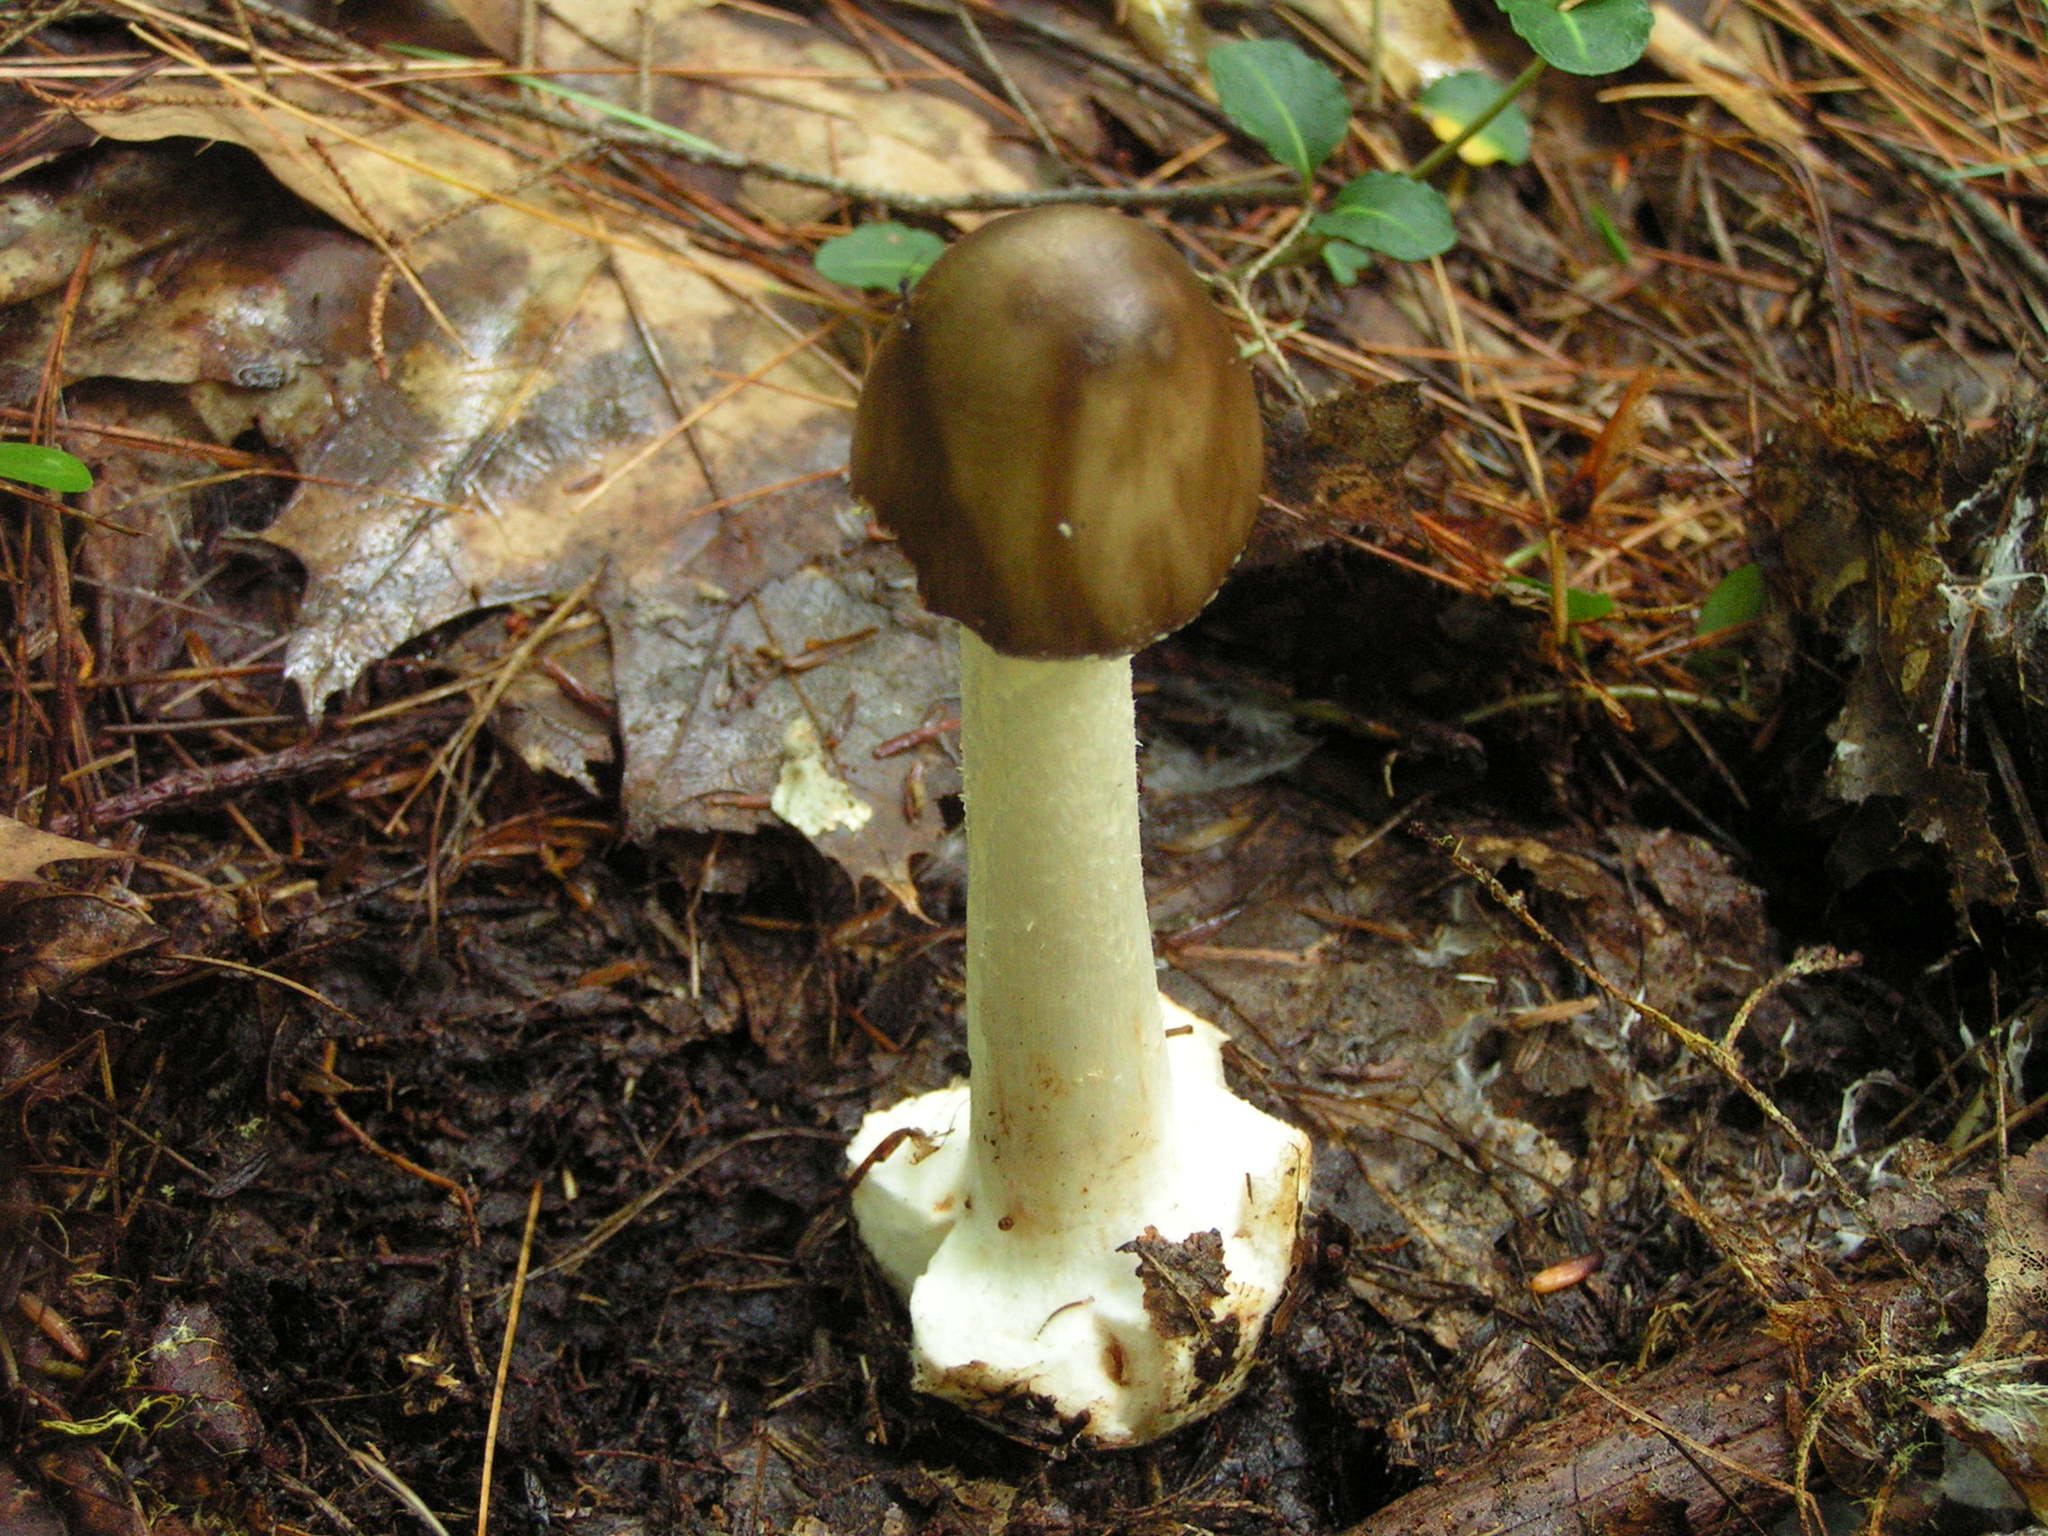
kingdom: Fungi
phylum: Basidiomycota
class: Agaricomycetes
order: Agaricales
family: Amanitaceae
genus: Amanita
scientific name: Amanita brunnescens
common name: Brown american star-footed amanita
